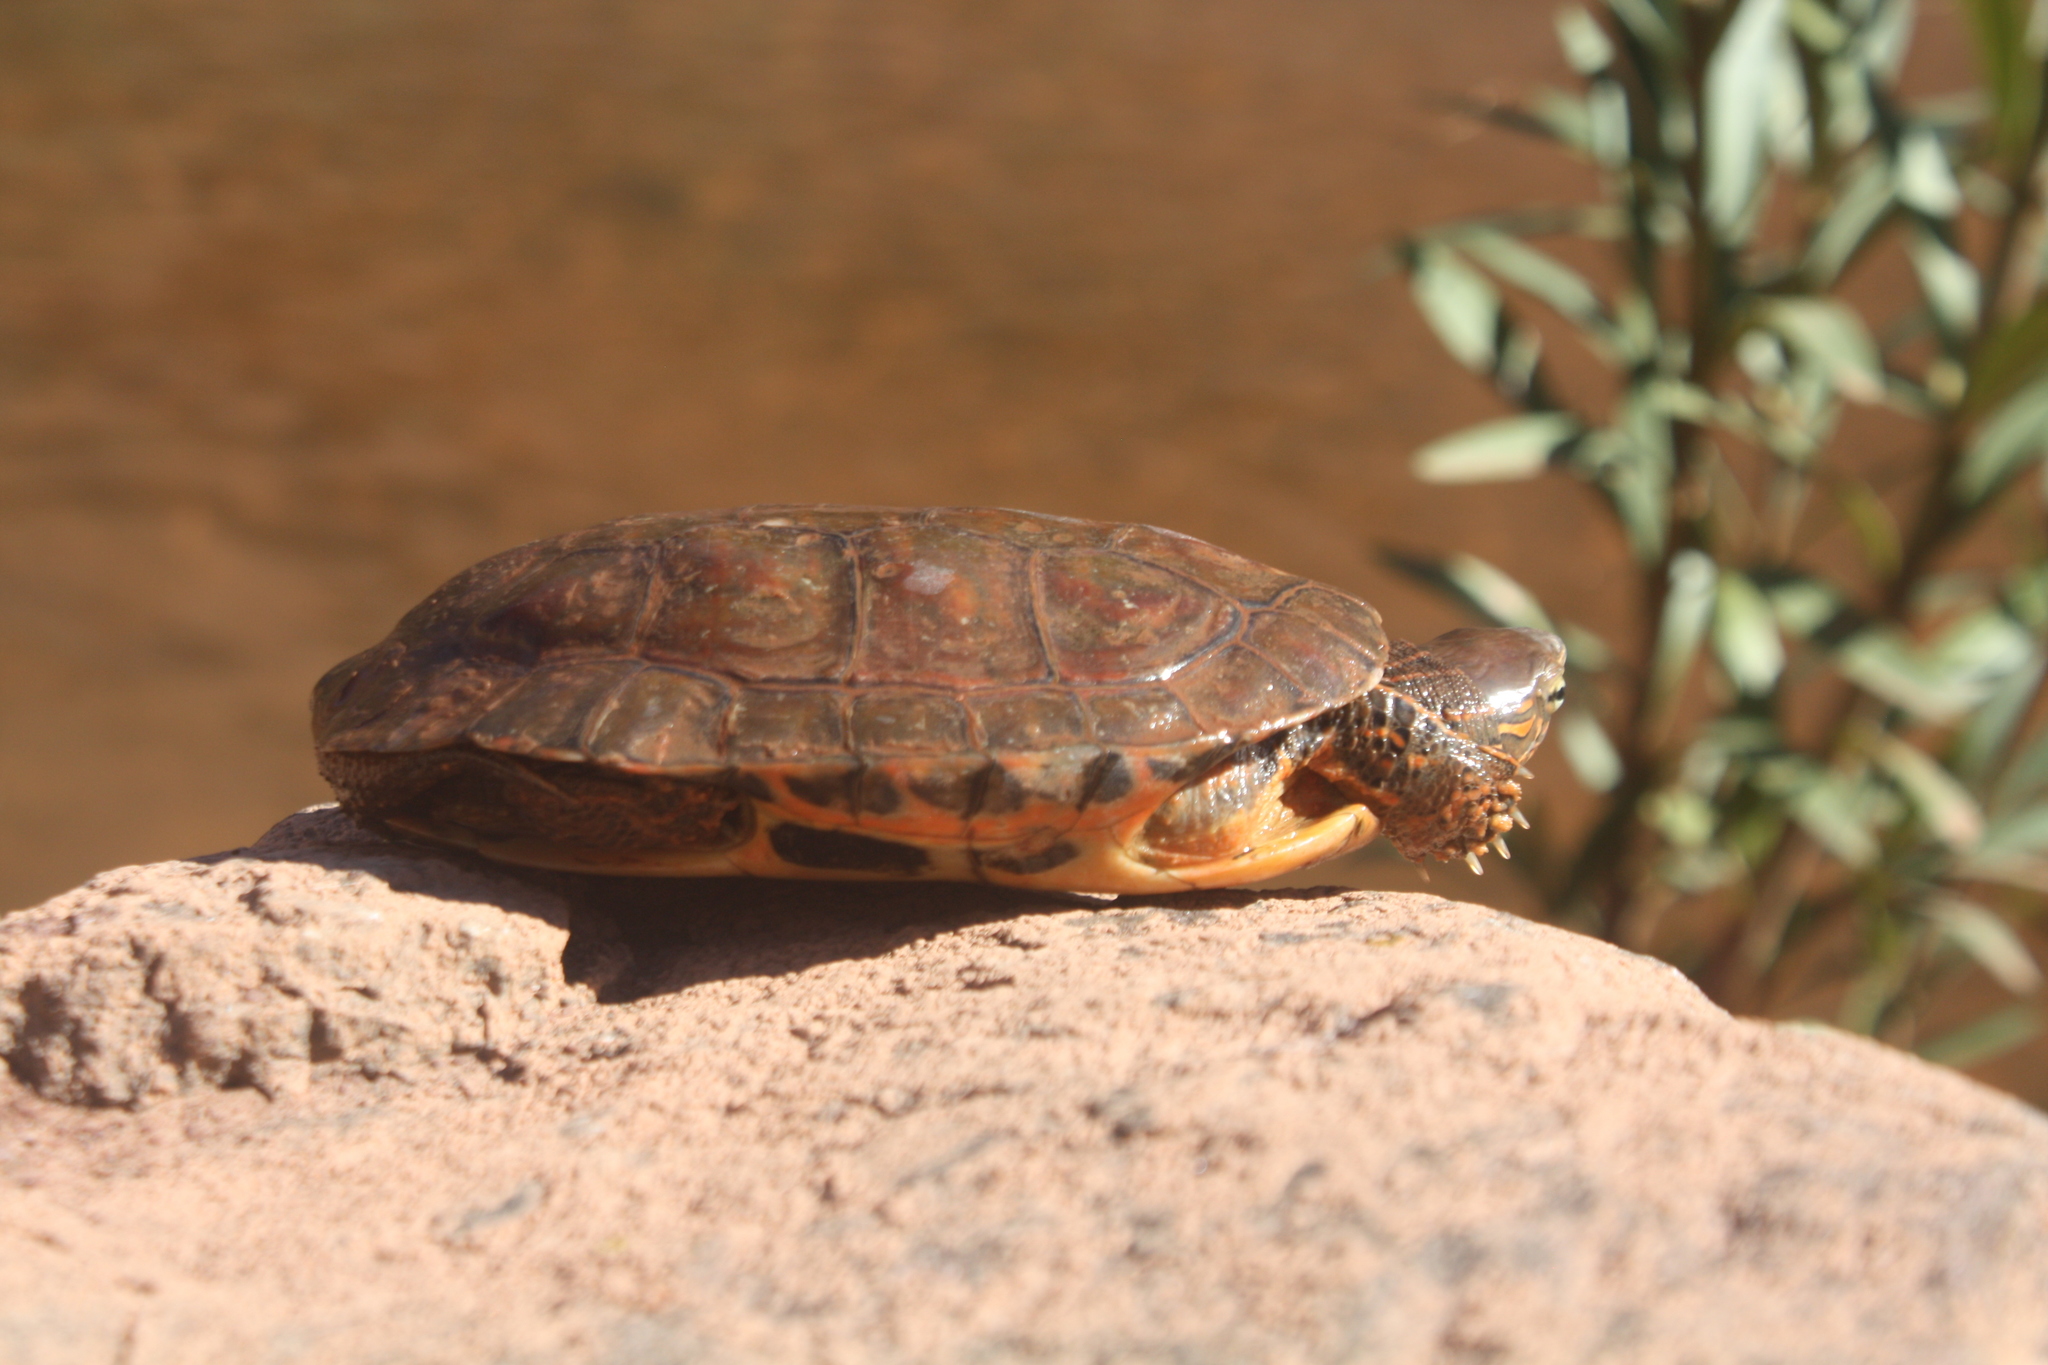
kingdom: Animalia
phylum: Chordata
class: Testudines
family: Geoemydidae
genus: Mauremys
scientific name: Mauremys leprosa
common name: Mediterranean pond turtle
